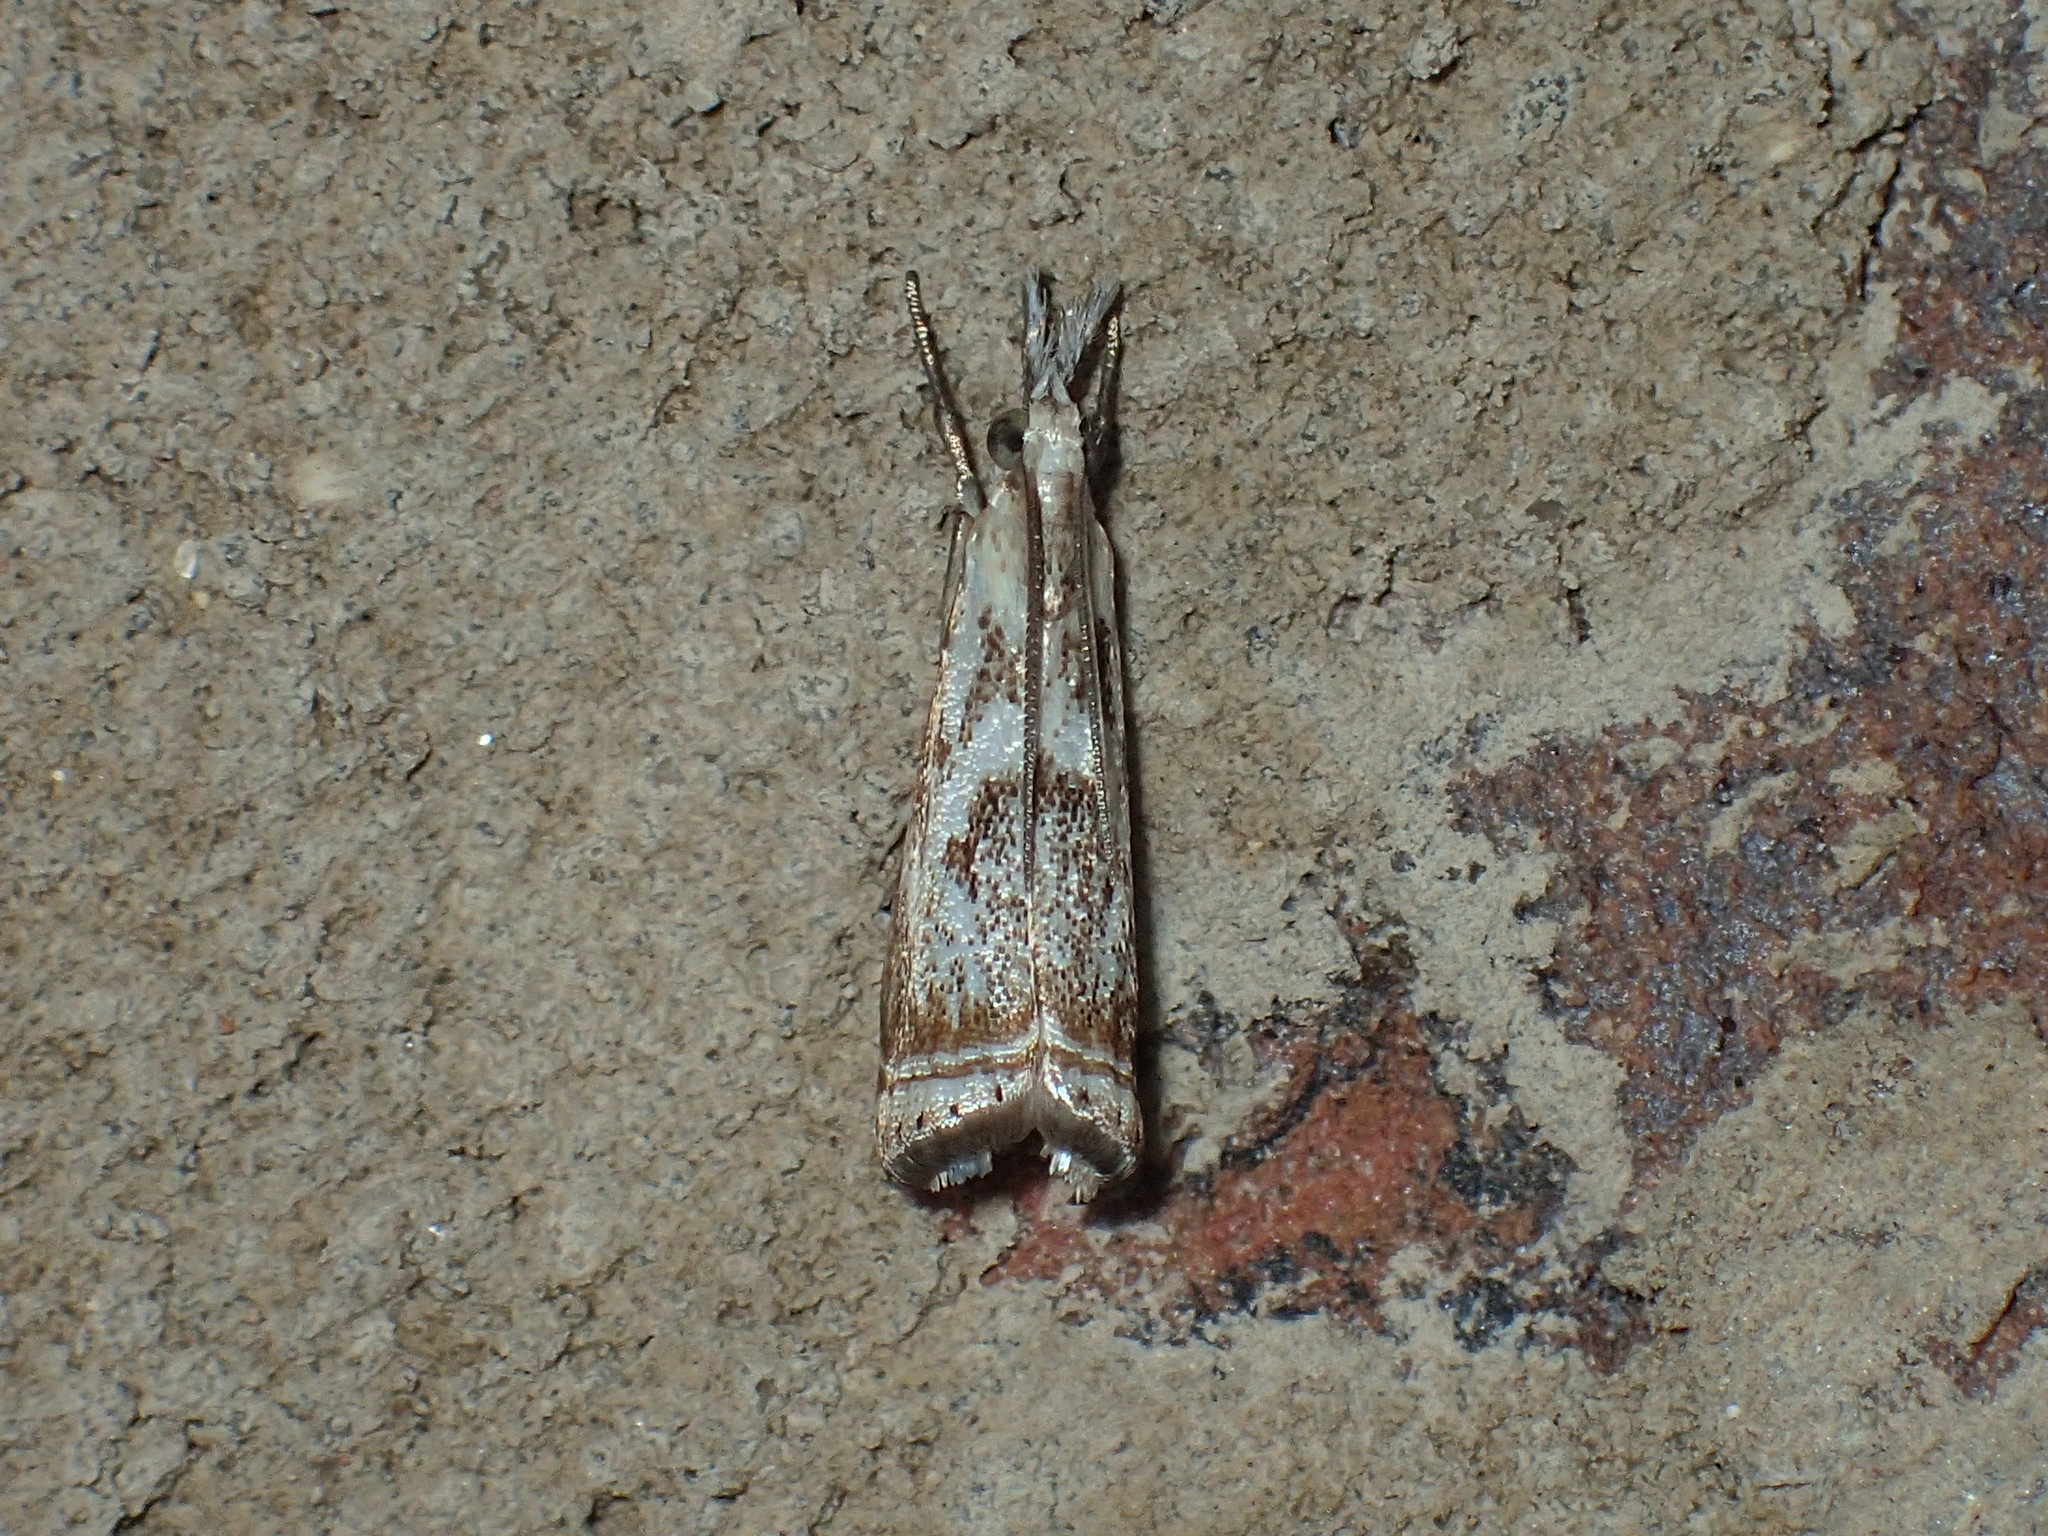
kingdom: Animalia
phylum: Arthropoda
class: Insecta
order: Lepidoptera
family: Crambidae
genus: Microcrambus
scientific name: Microcrambus elegans
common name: Elegant grass-veneer
